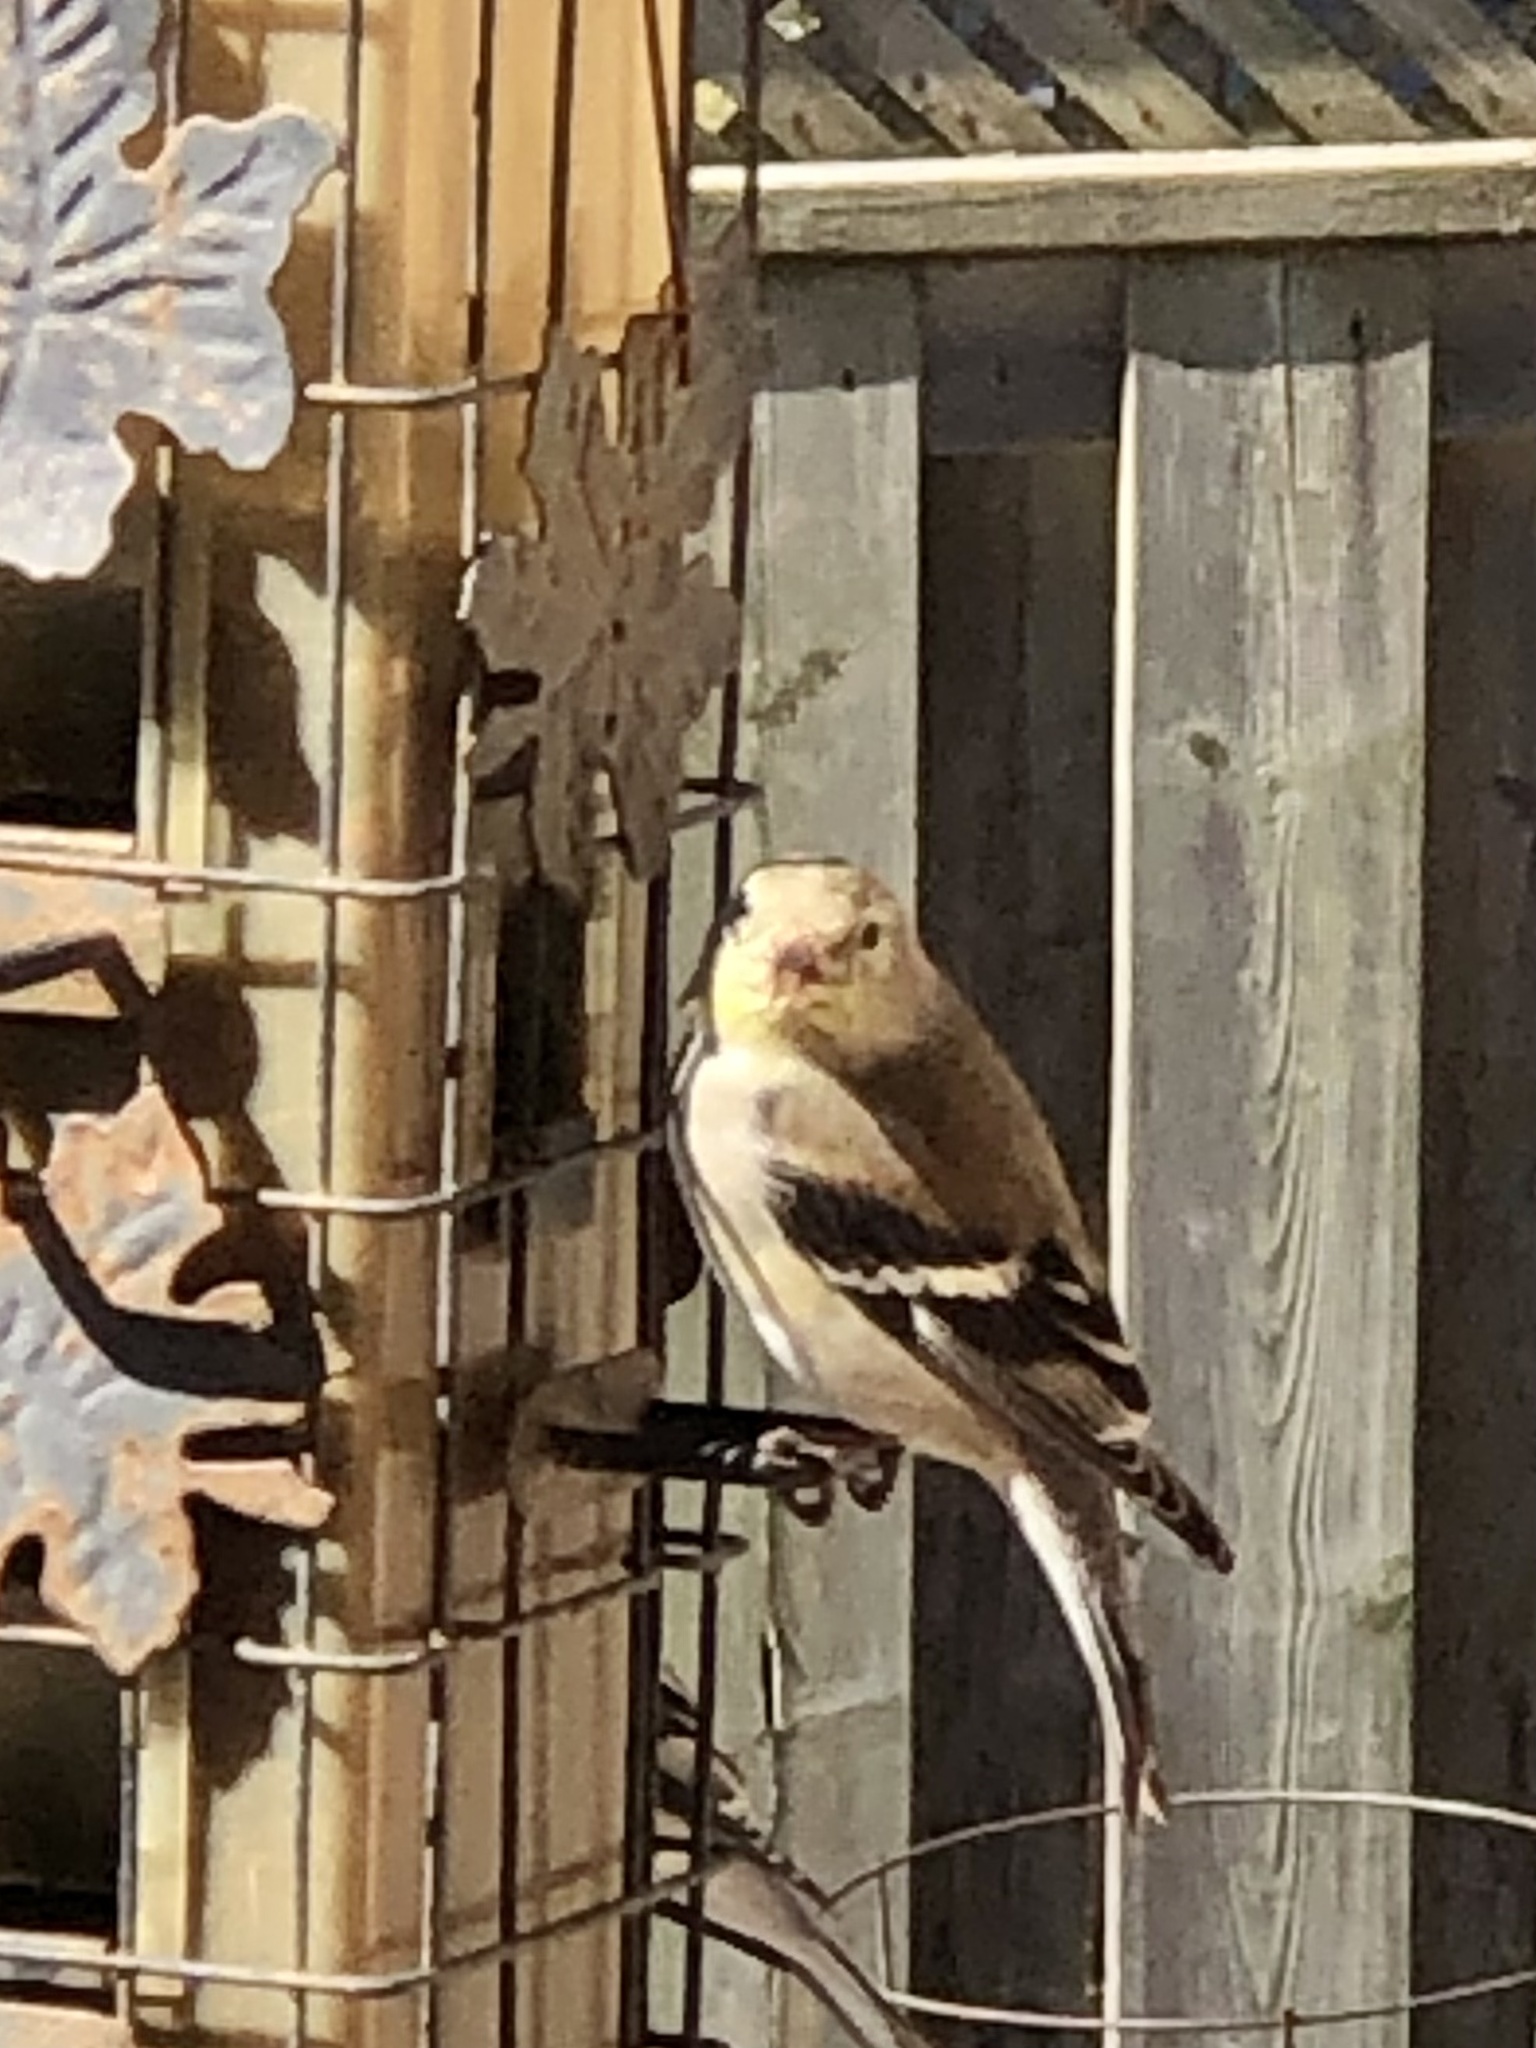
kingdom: Animalia
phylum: Chordata
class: Aves
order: Passeriformes
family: Fringillidae
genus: Spinus
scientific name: Spinus tristis
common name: American goldfinch
